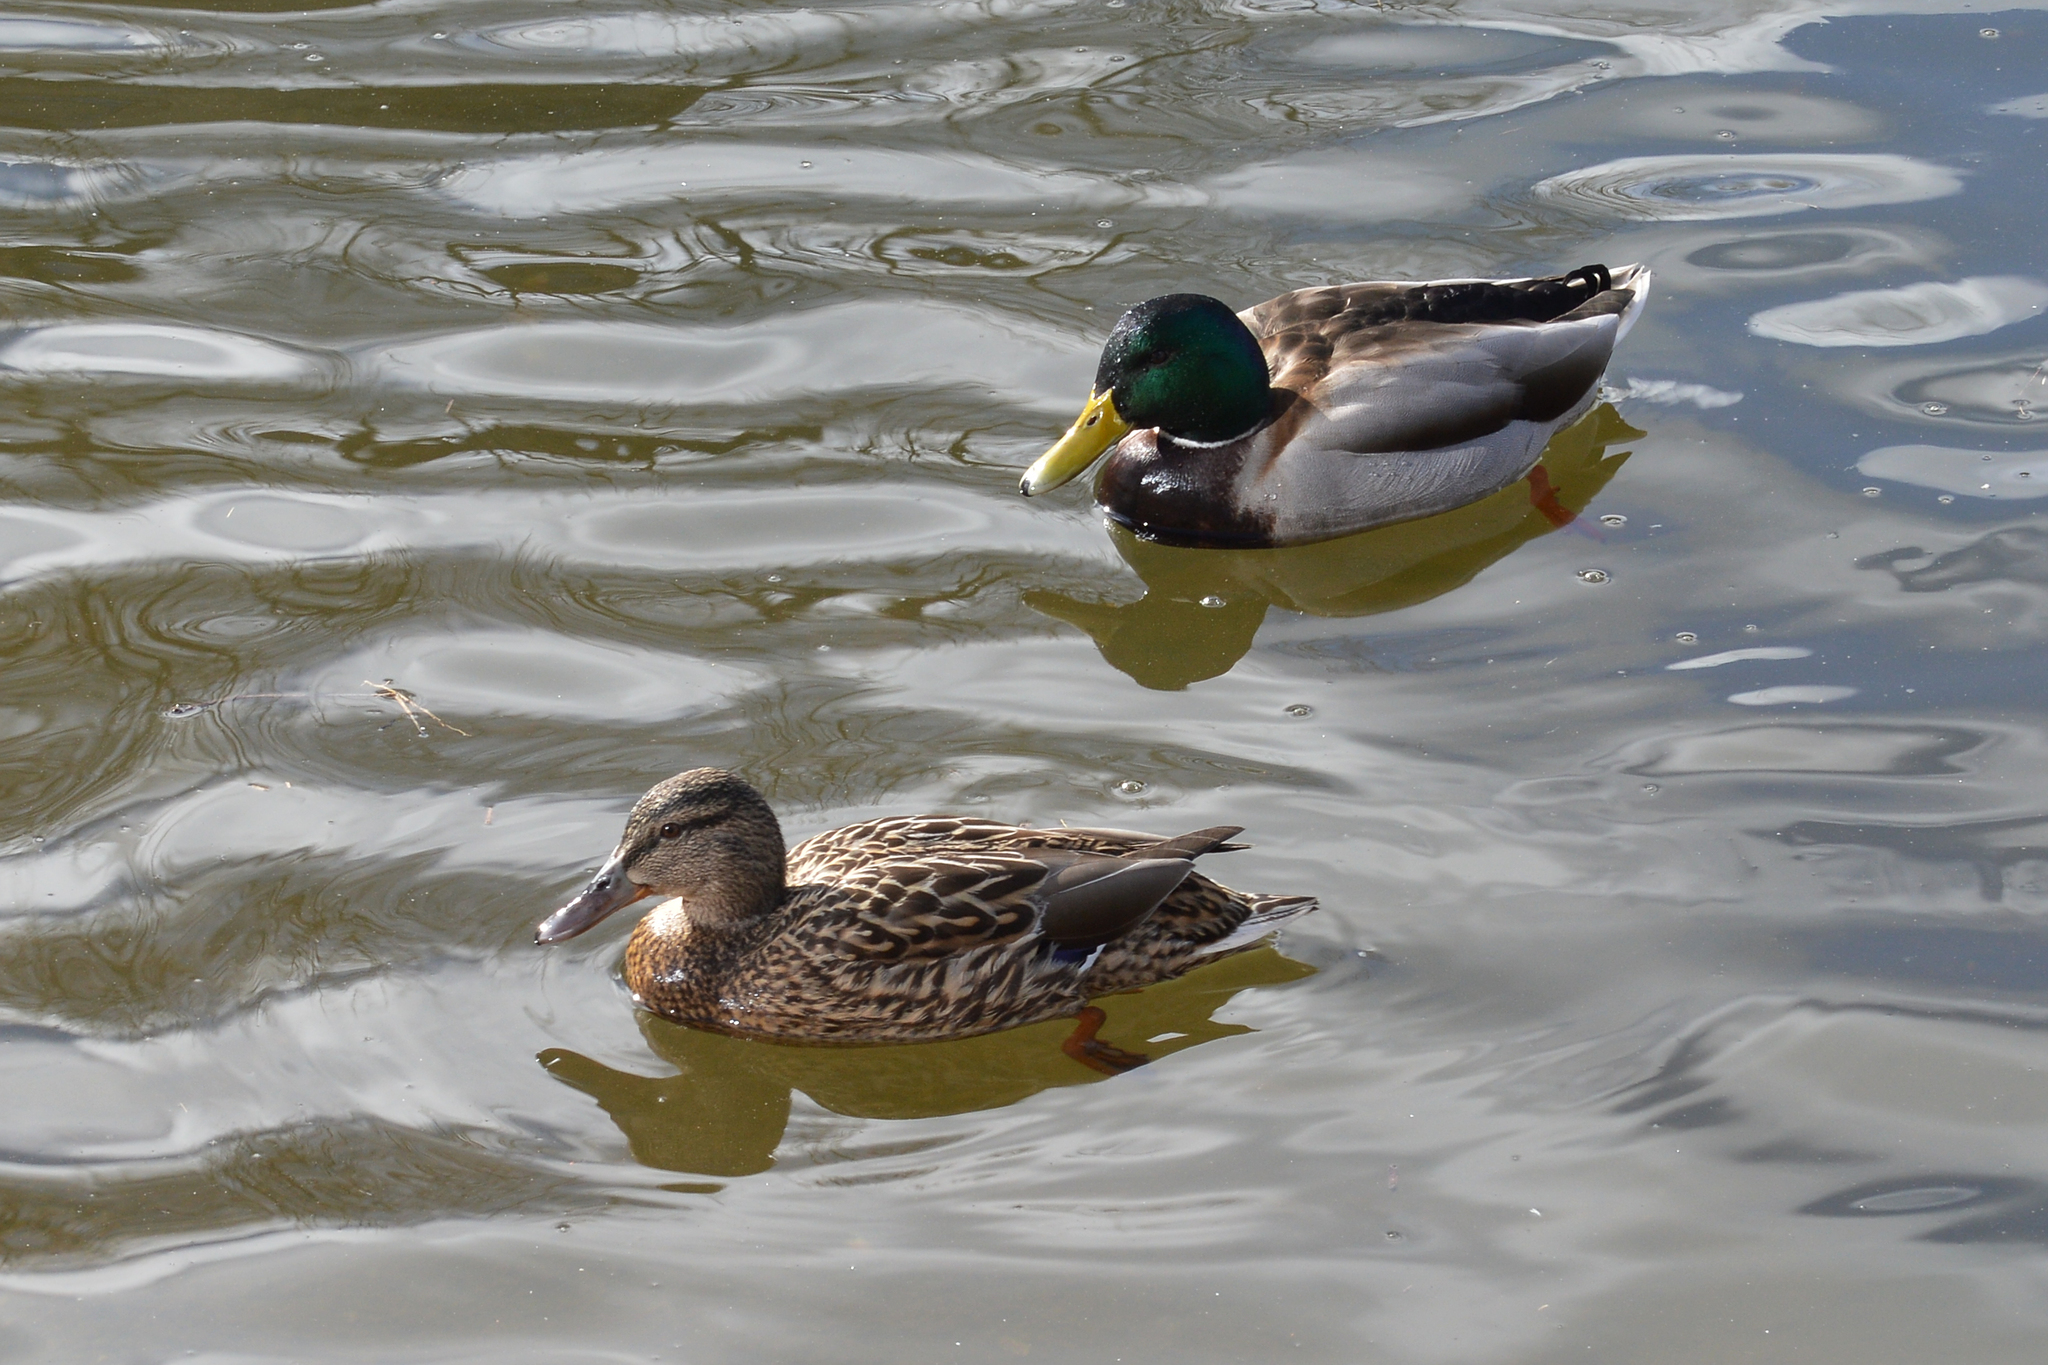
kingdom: Animalia
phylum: Chordata
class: Aves
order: Anseriformes
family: Anatidae
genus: Anas
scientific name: Anas platyrhynchos
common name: Mallard
